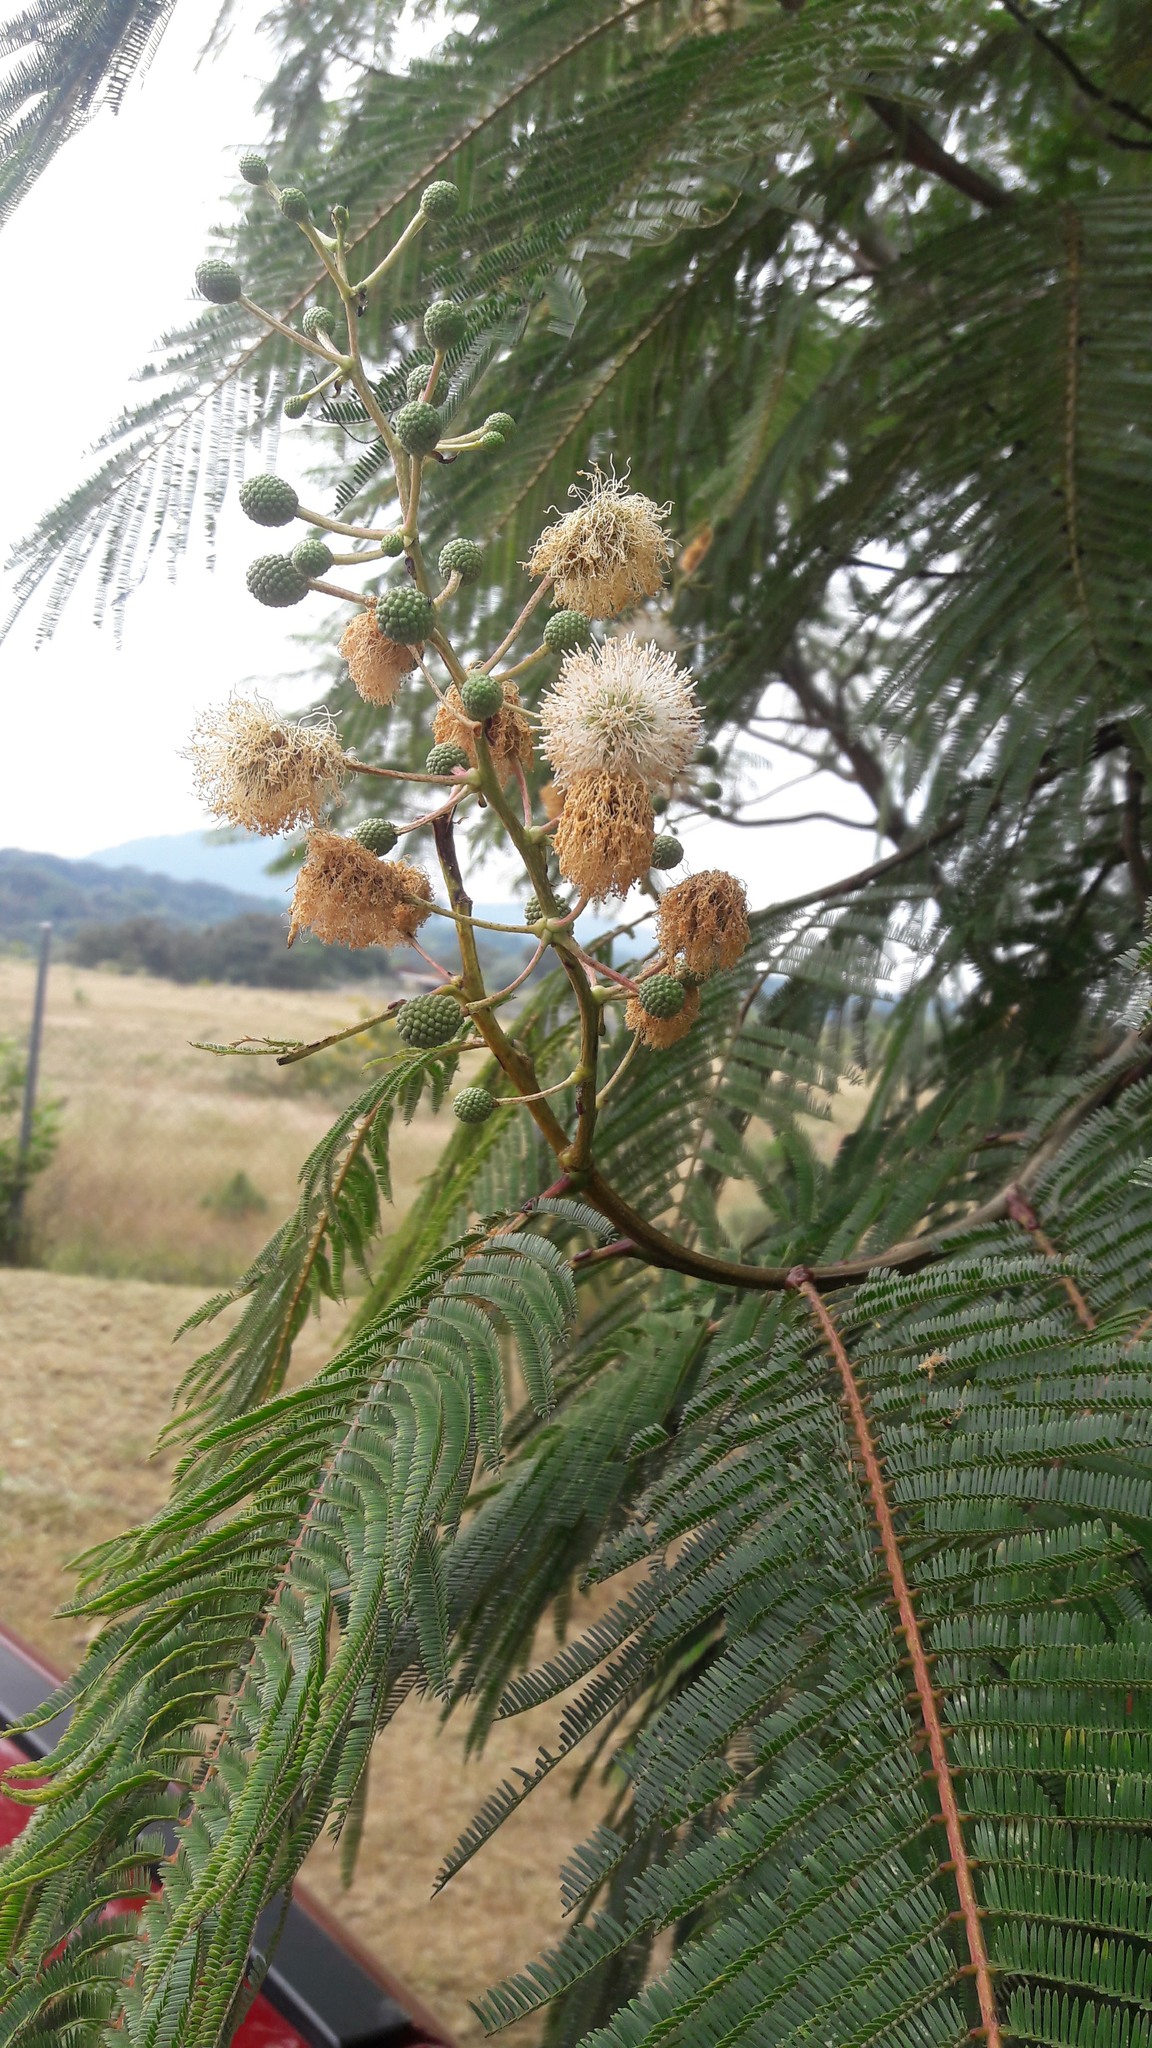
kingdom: Plantae
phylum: Tracheophyta
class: Magnoliopsida
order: Fabales
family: Fabaceae
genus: Leucaena
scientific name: Leucaena esculenta
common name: Guaje
